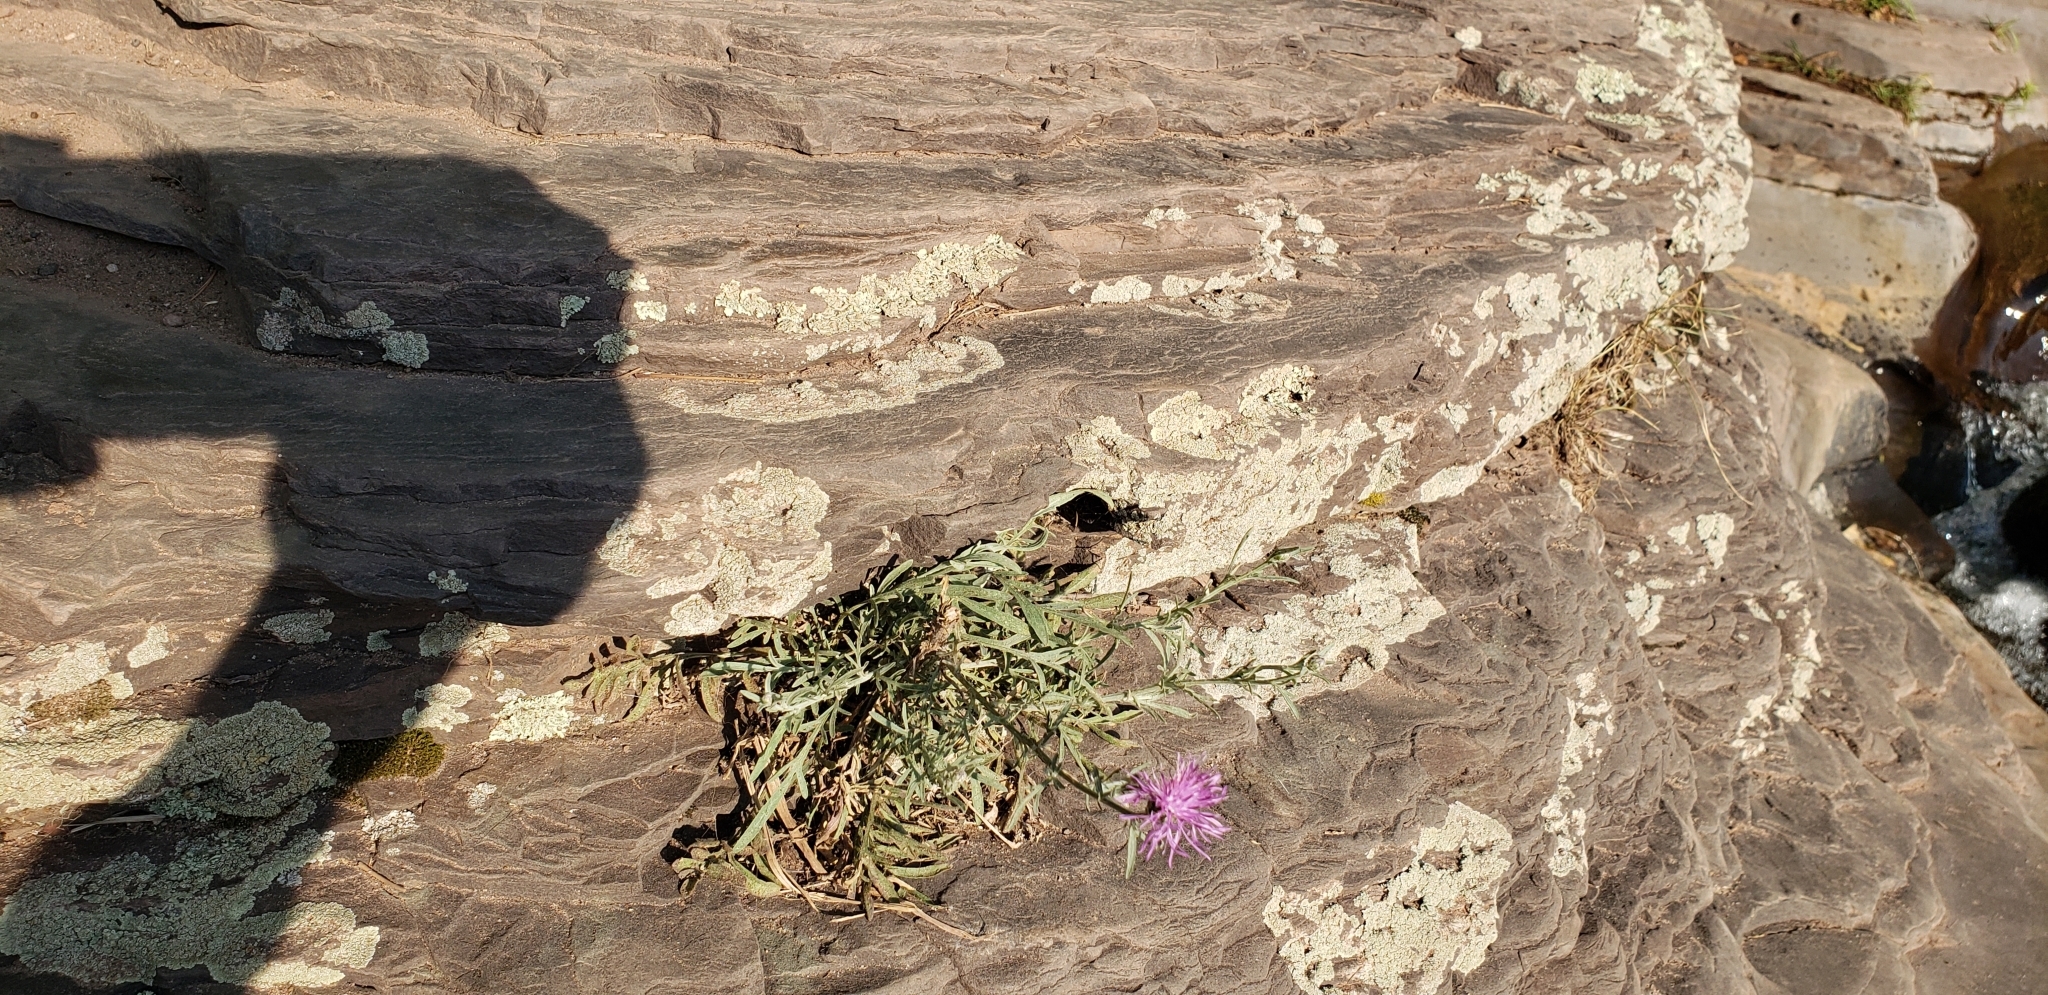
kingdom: Plantae
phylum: Tracheophyta
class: Magnoliopsida
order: Asterales
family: Asteraceae
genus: Centaurea
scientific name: Centaurea stoebe
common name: Spotted knapweed
